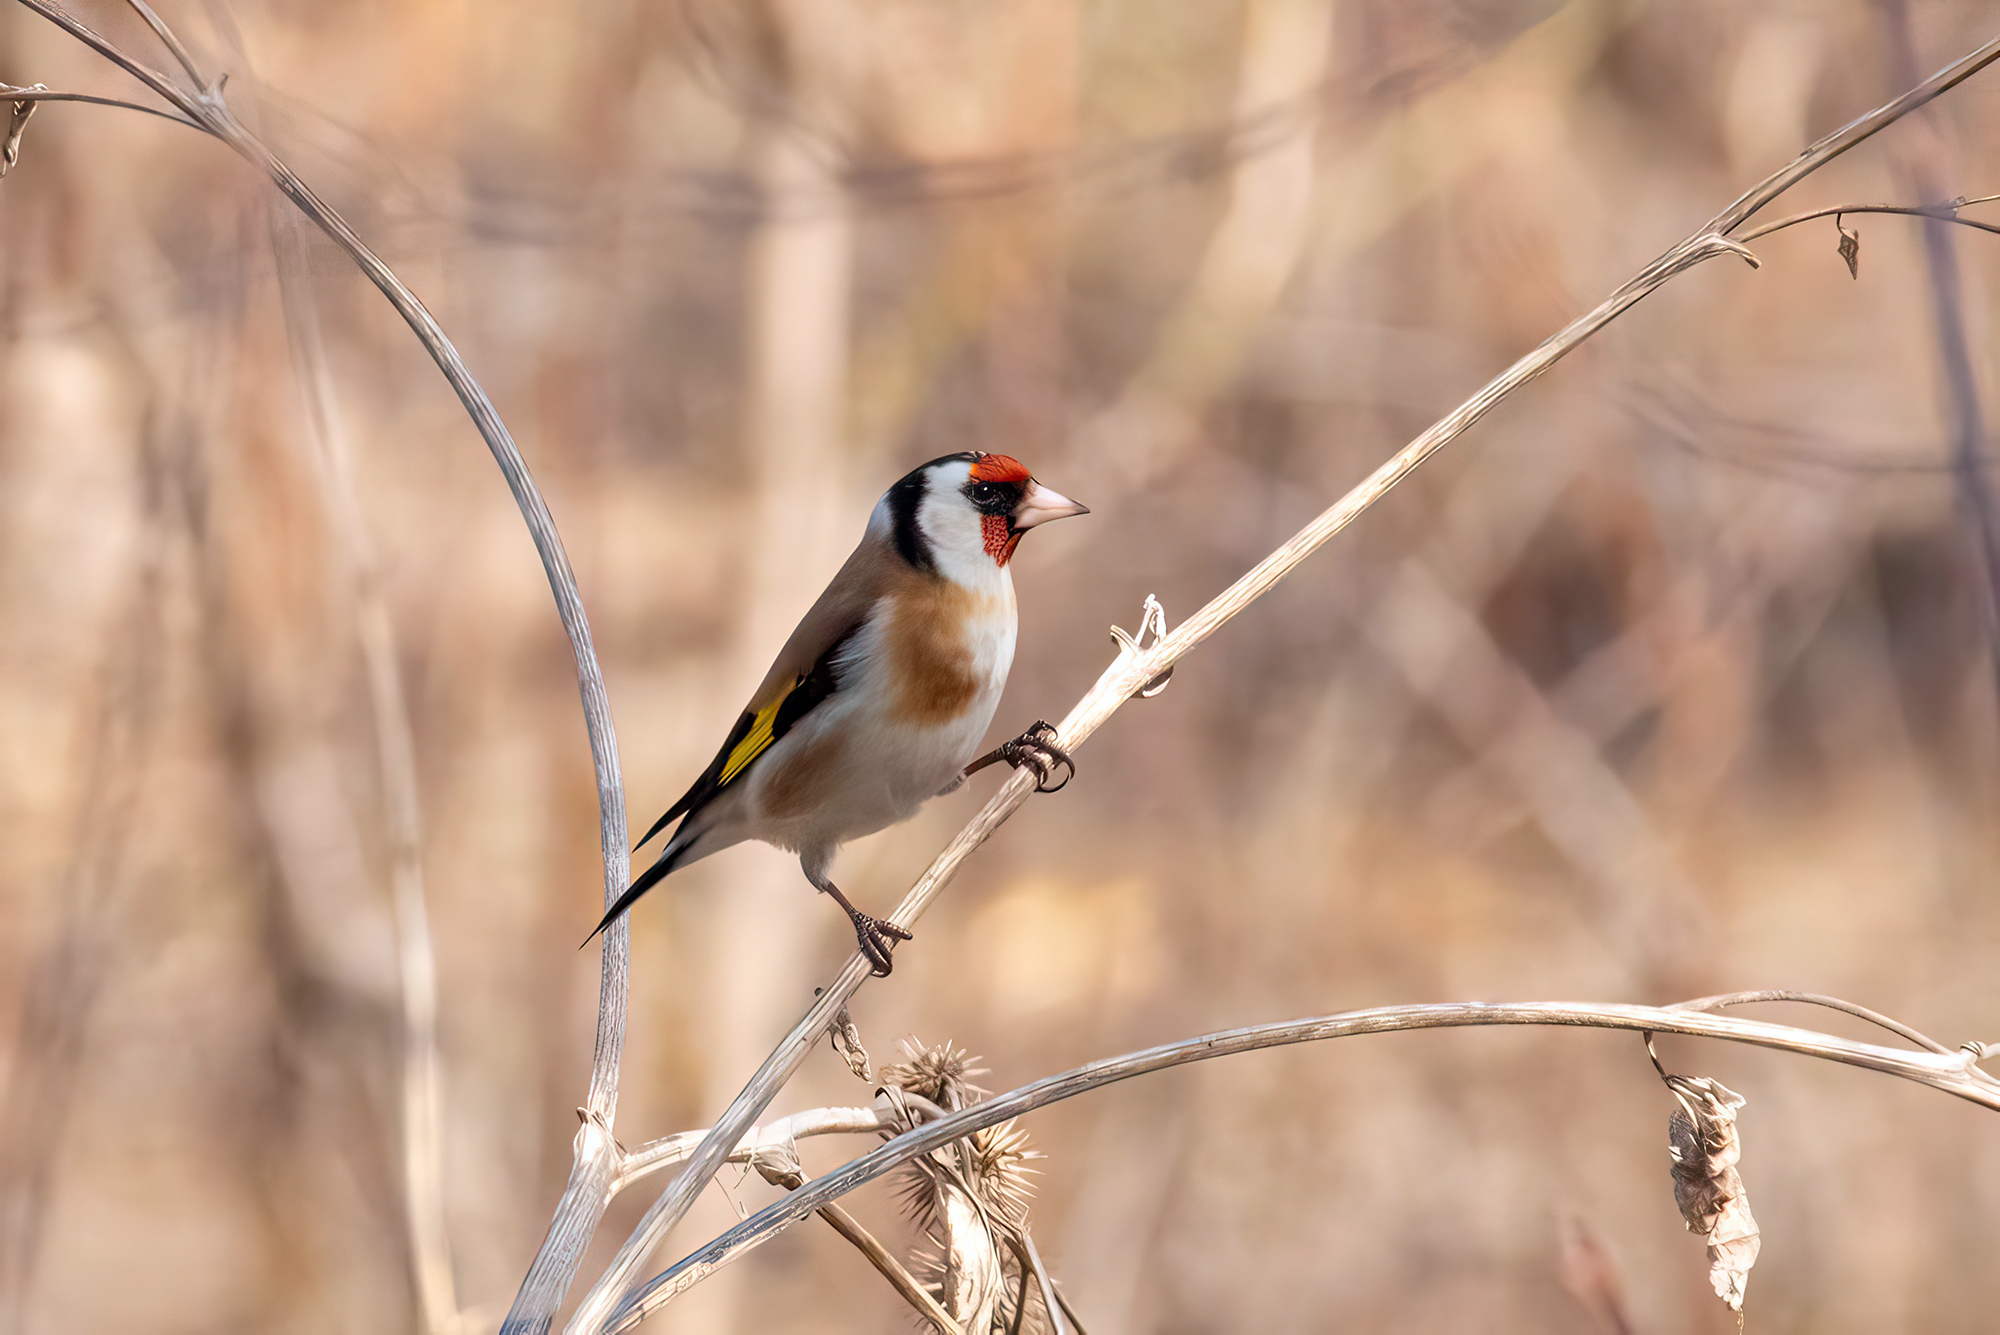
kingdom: Animalia
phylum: Chordata
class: Aves
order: Passeriformes
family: Fringillidae
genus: Carduelis
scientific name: Carduelis carduelis
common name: European goldfinch
